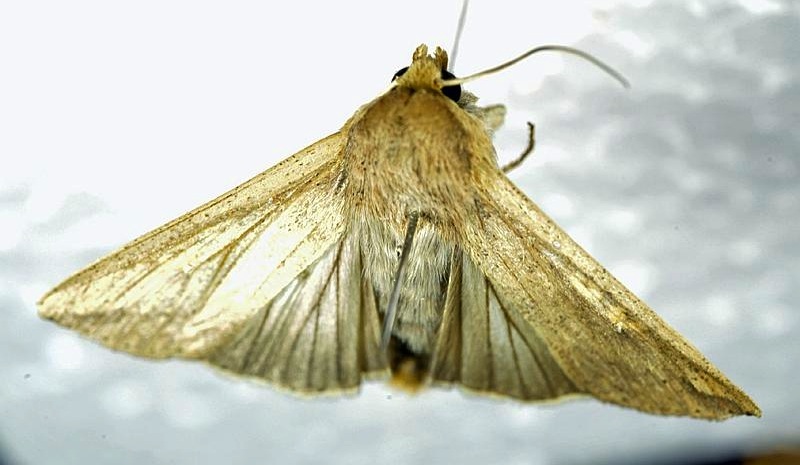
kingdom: Animalia
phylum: Arthropoda
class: Insecta
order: Lepidoptera
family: Noctuidae
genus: Mythimna
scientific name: Mythimna unipuncta
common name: White-speck
